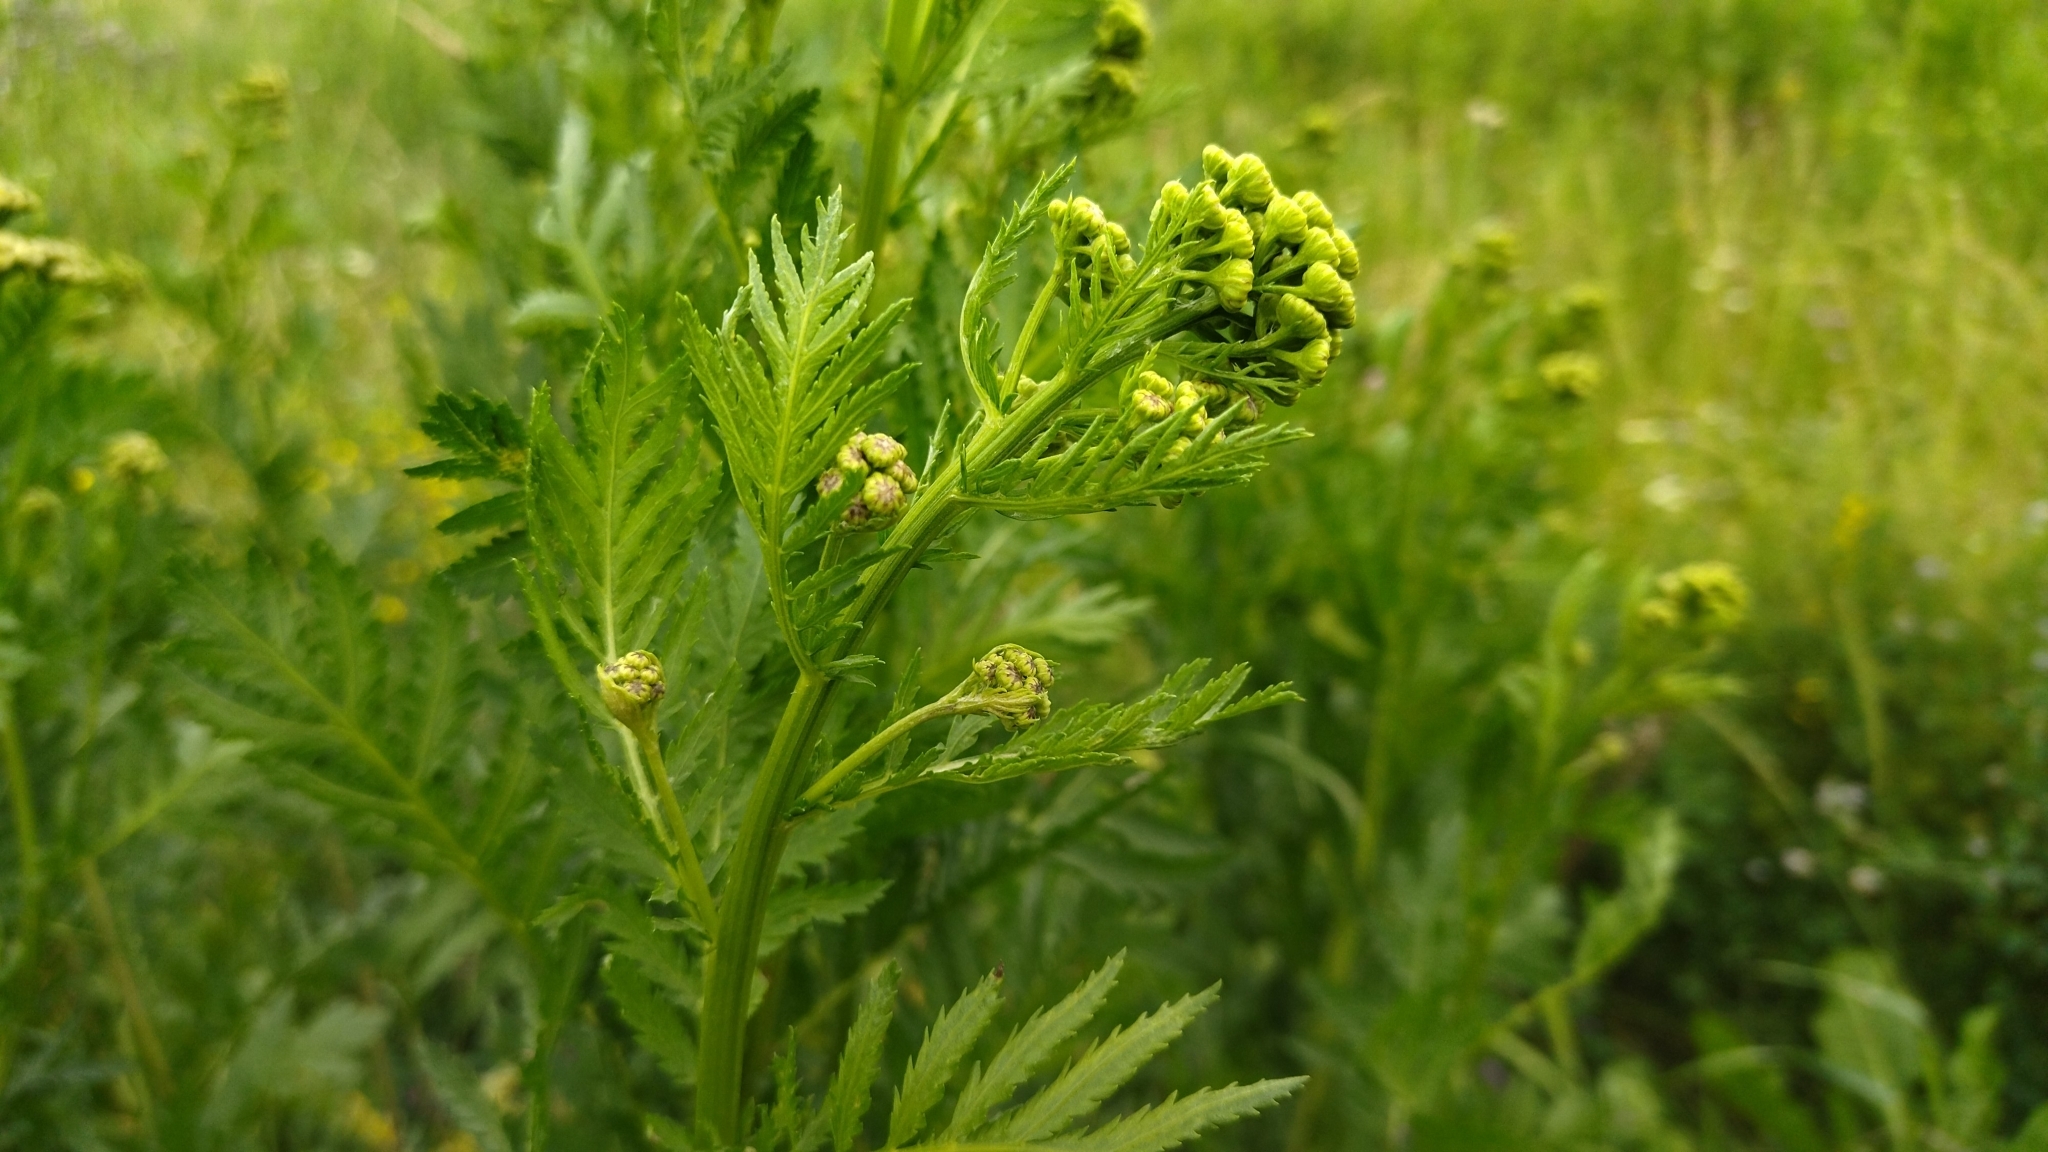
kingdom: Plantae
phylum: Tracheophyta
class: Magnoliopsida
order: Asterales
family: Asteraceae
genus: Tanacetum
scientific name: Tanacetum vulgare
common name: Common tansy
